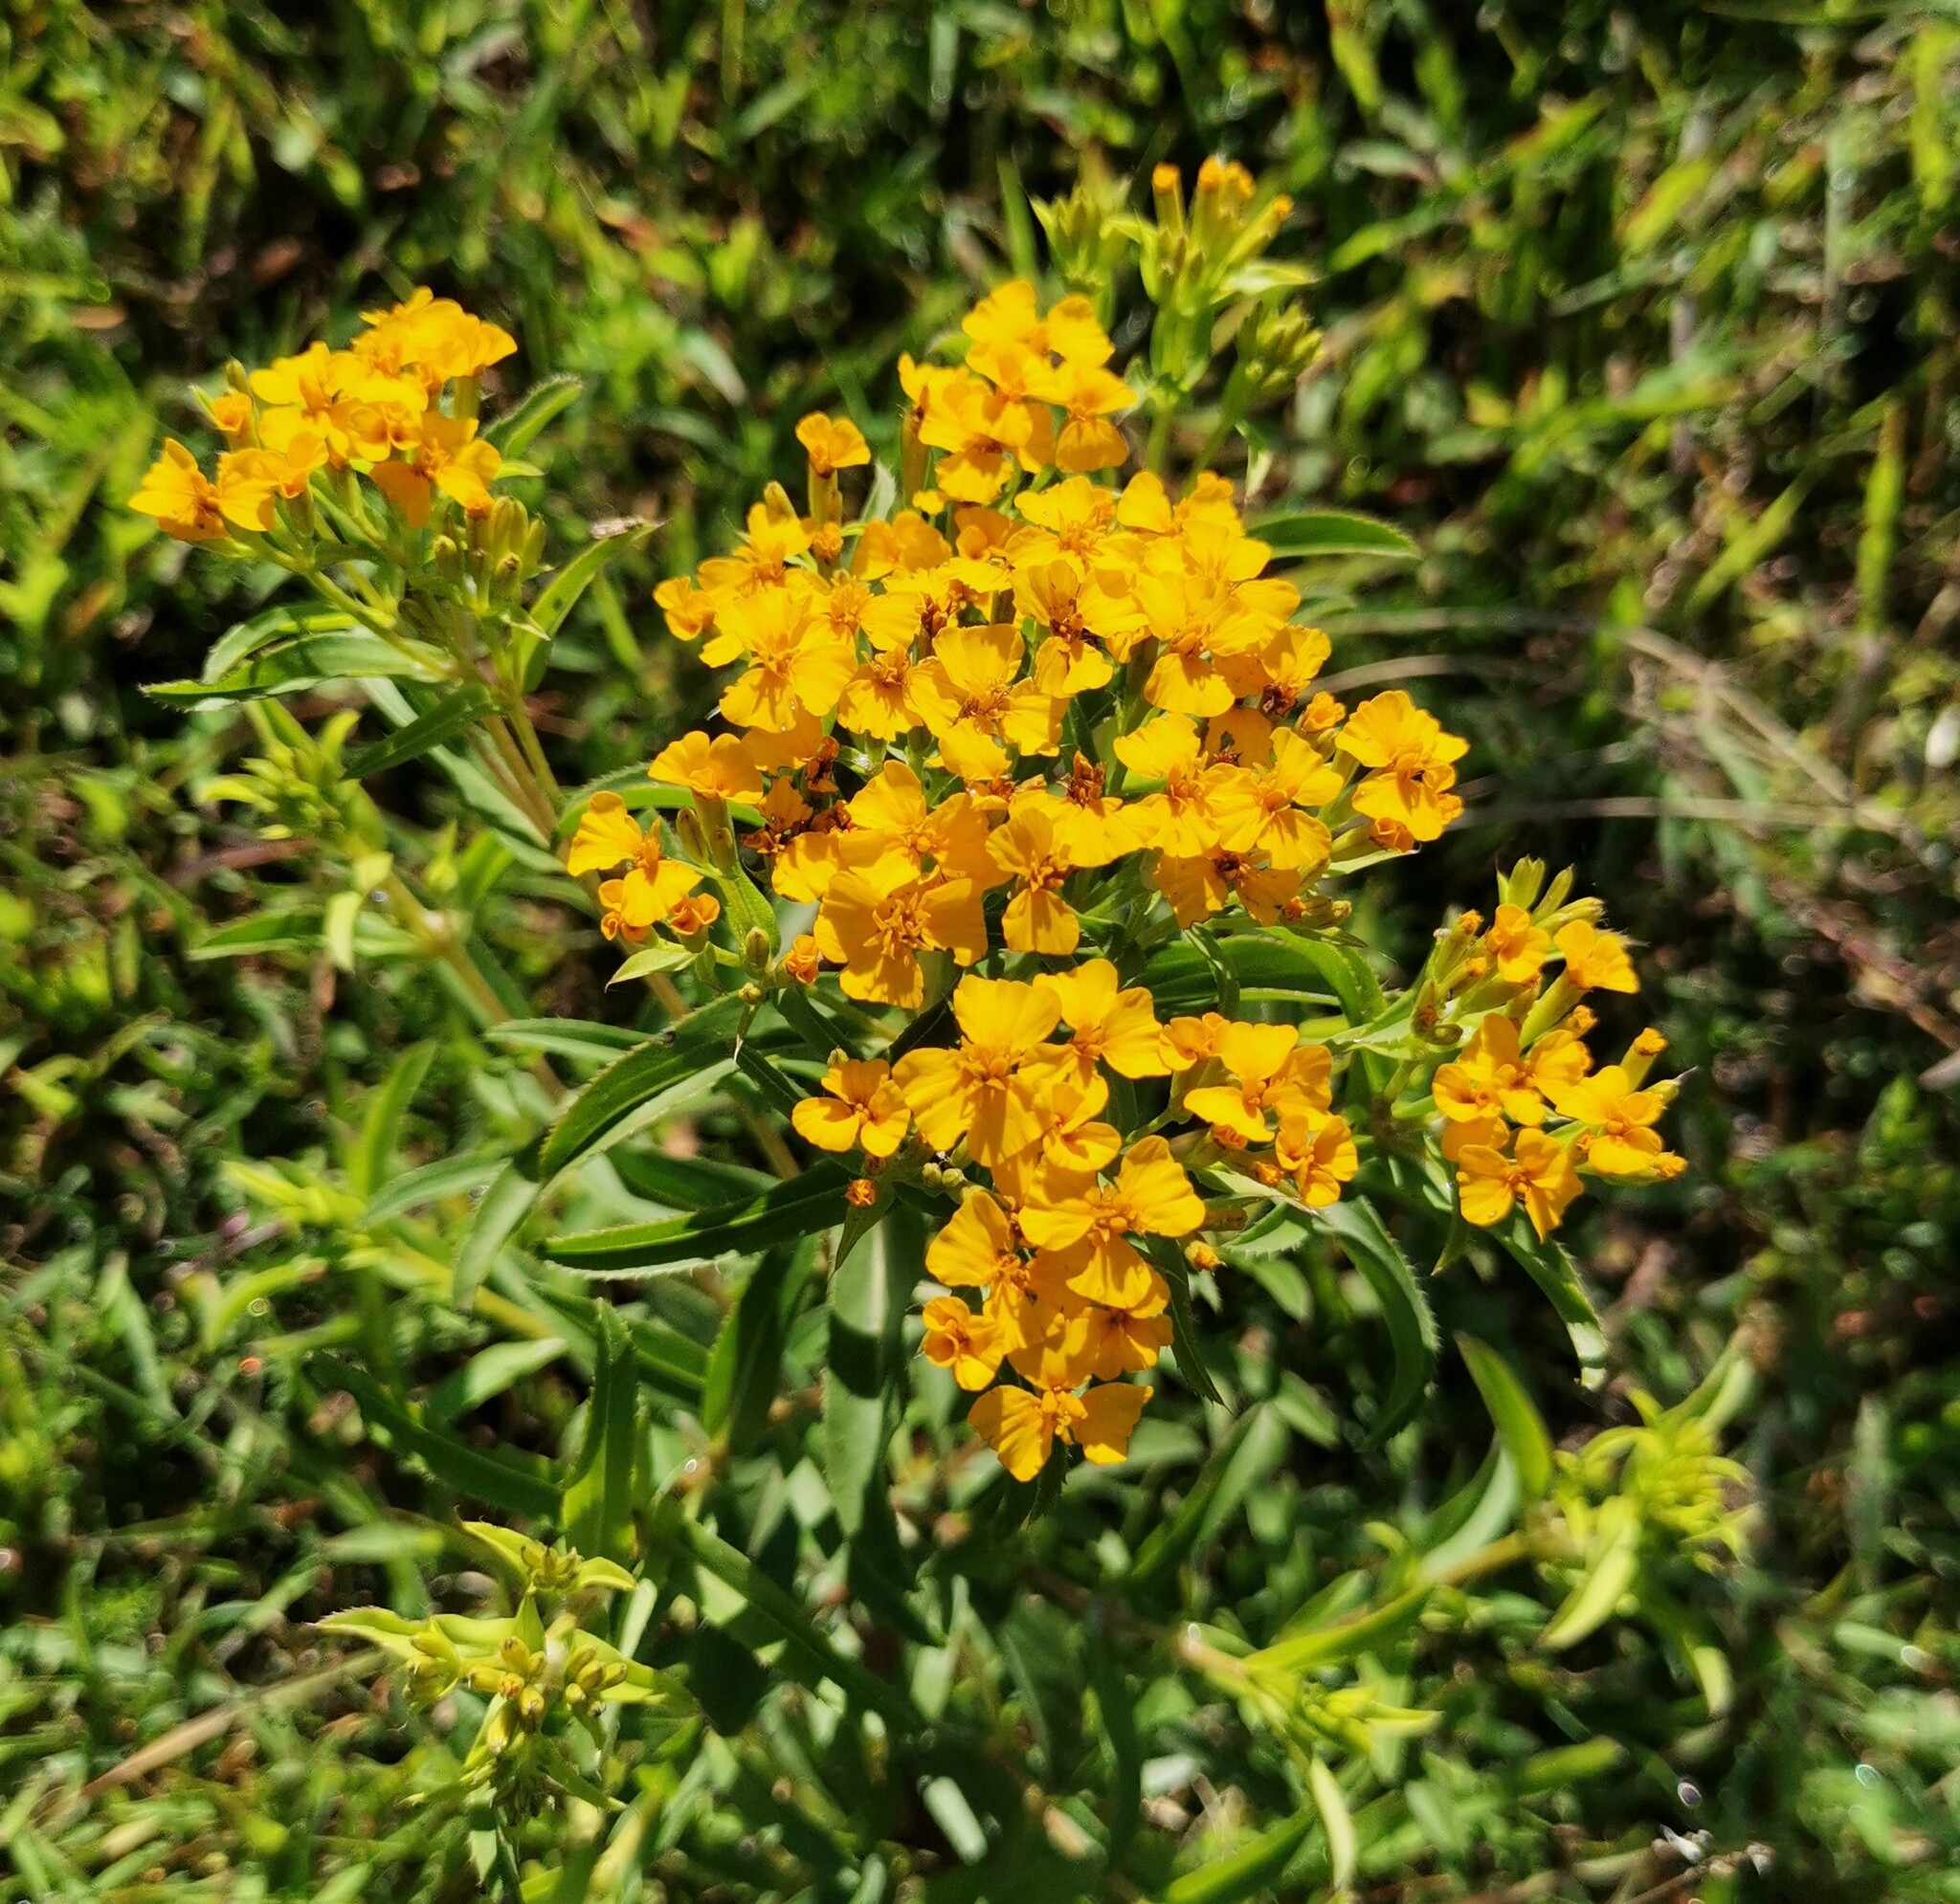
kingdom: Plantae
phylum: Tracheophyta
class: Magnoliopsida
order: Asterales
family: Asteraceae
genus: Tagetes
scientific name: Tagetes lucida
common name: Sweetscented marigold
